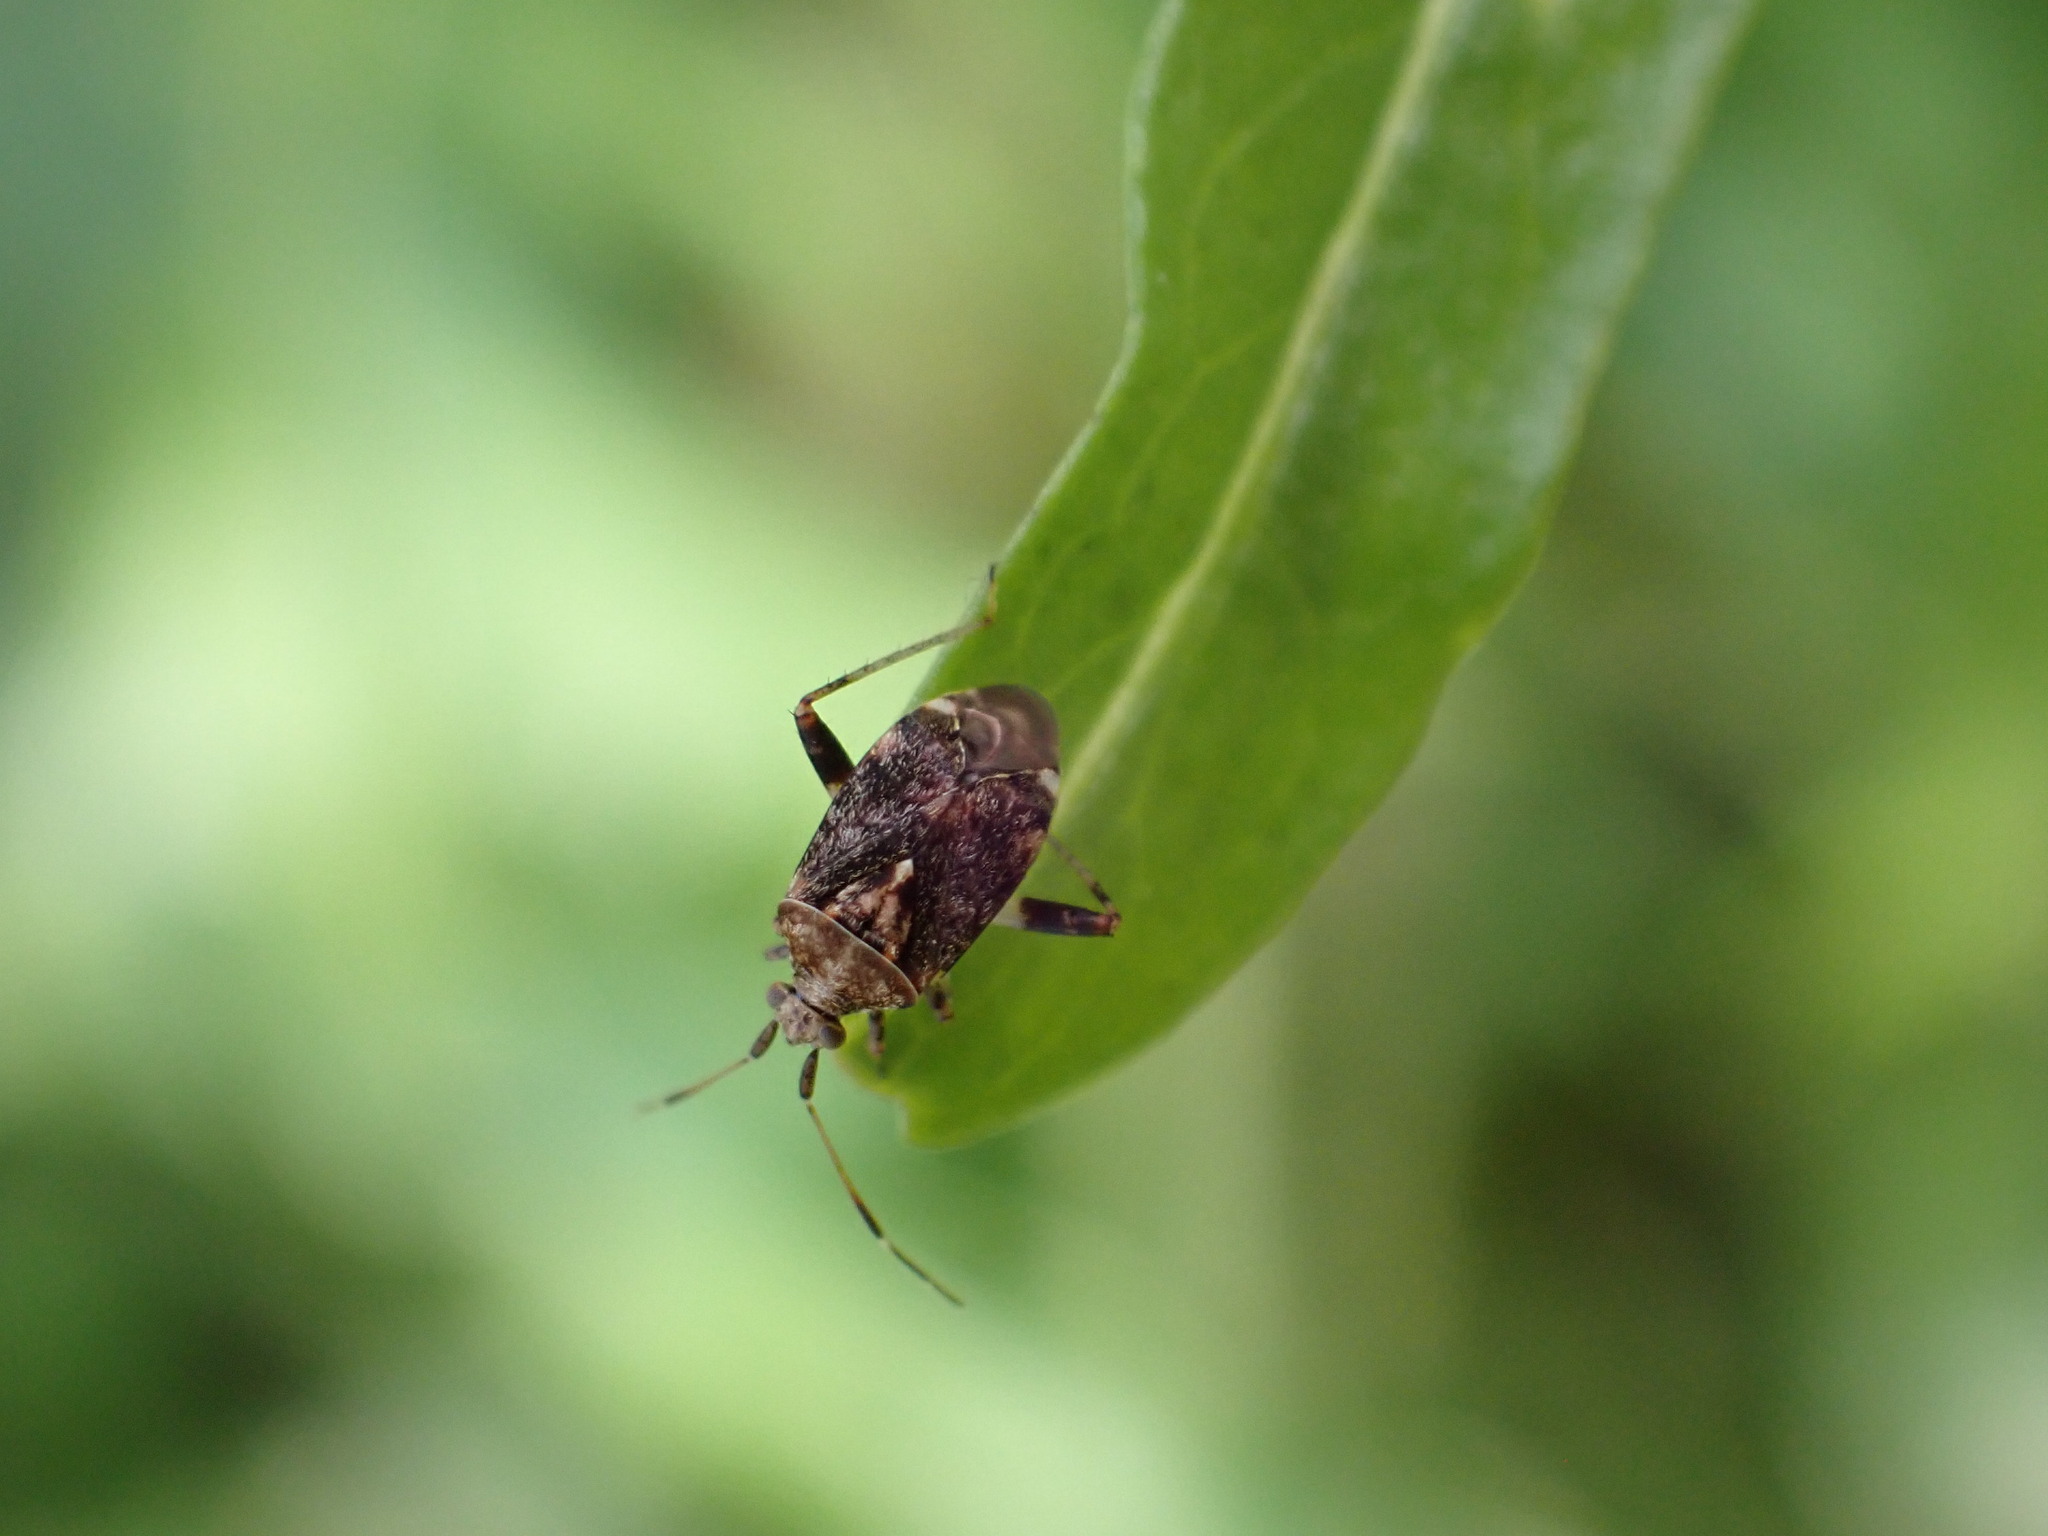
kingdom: Animalia
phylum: Arthropoda
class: Insecta
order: Hemiptera
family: Miridae
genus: Sidnia
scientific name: Sidnia kinbergi
